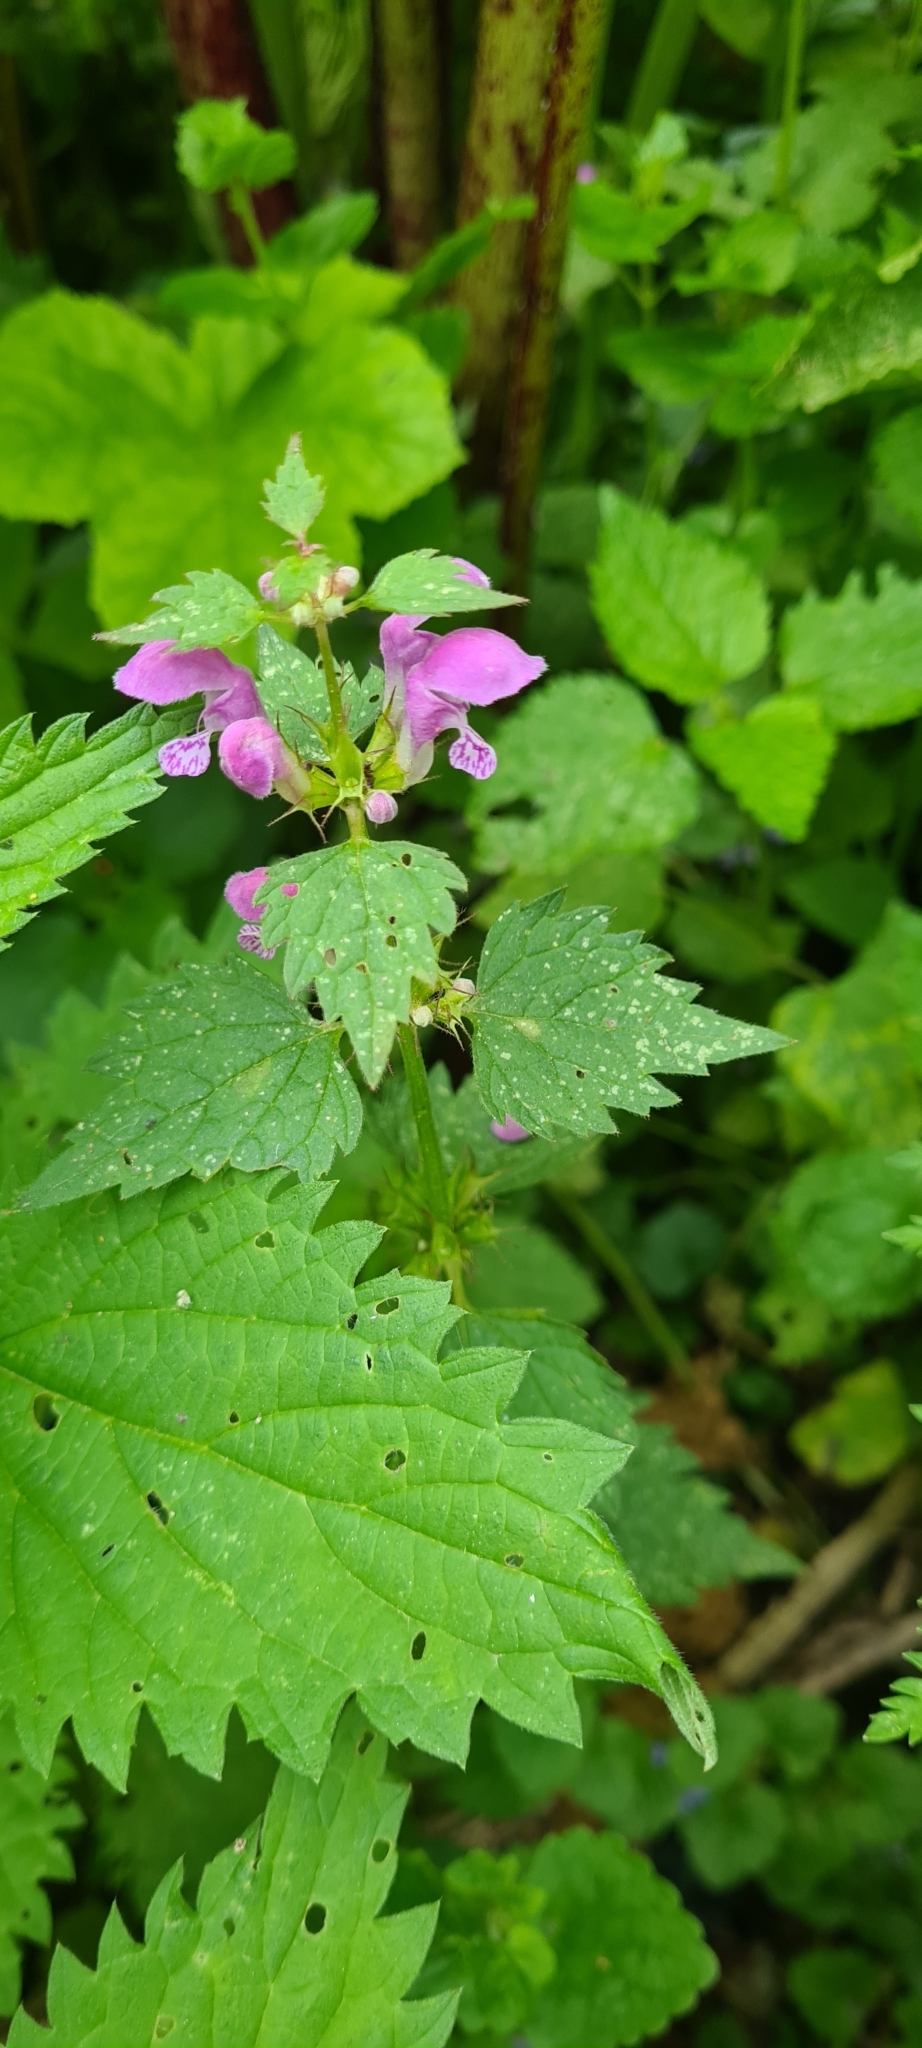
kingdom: Plantae
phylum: Tracheophyta
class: Magnoliopsida
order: Lamiales
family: Lamiaceae
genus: Lamium
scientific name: Lamium maculatum
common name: Spotted dead-nettle
